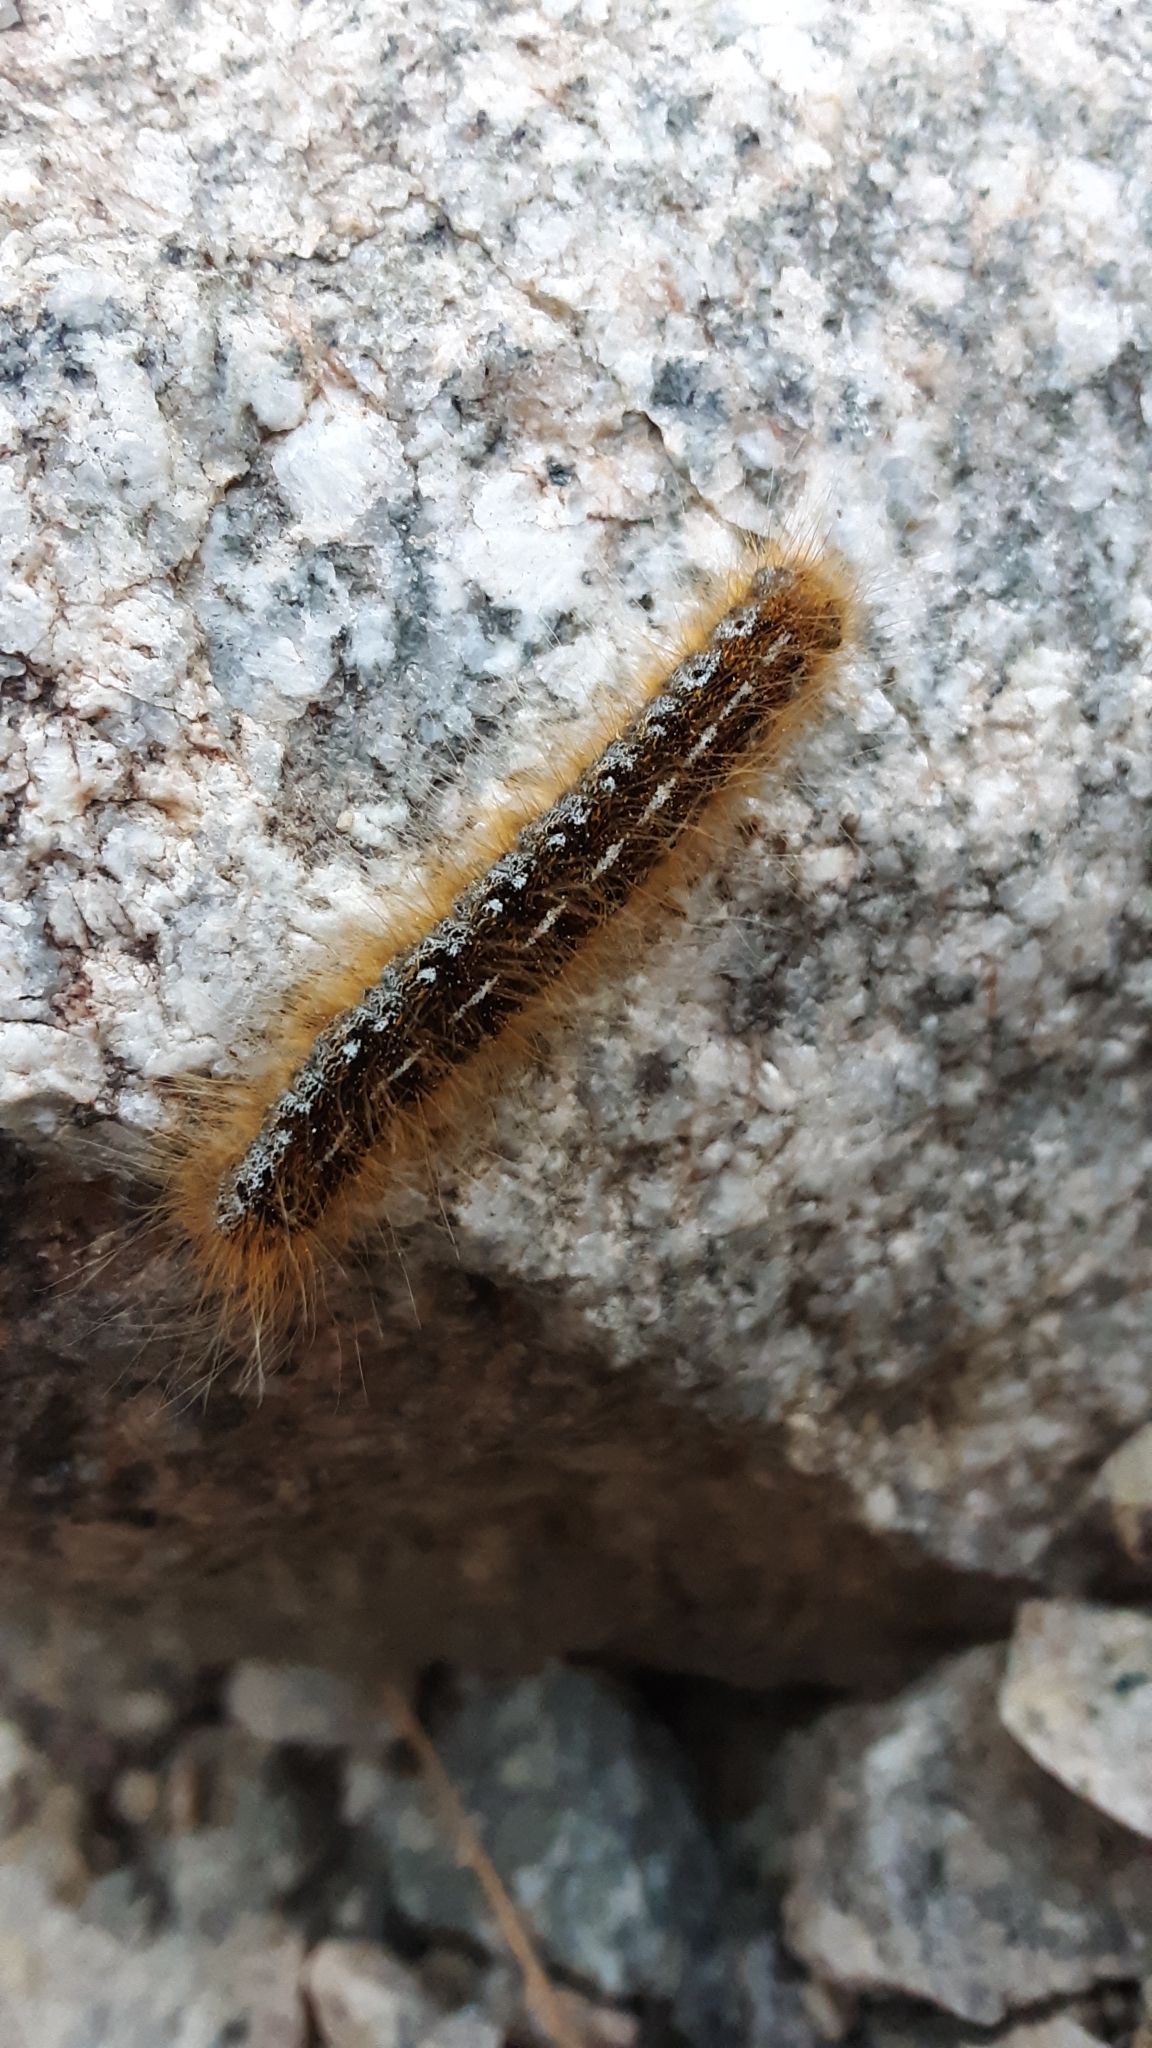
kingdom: Animalia
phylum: Arthropoda
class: Insecta
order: Lepidoptera
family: Lasiocampidae
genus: Malacosoma
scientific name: Malacosoma californica
